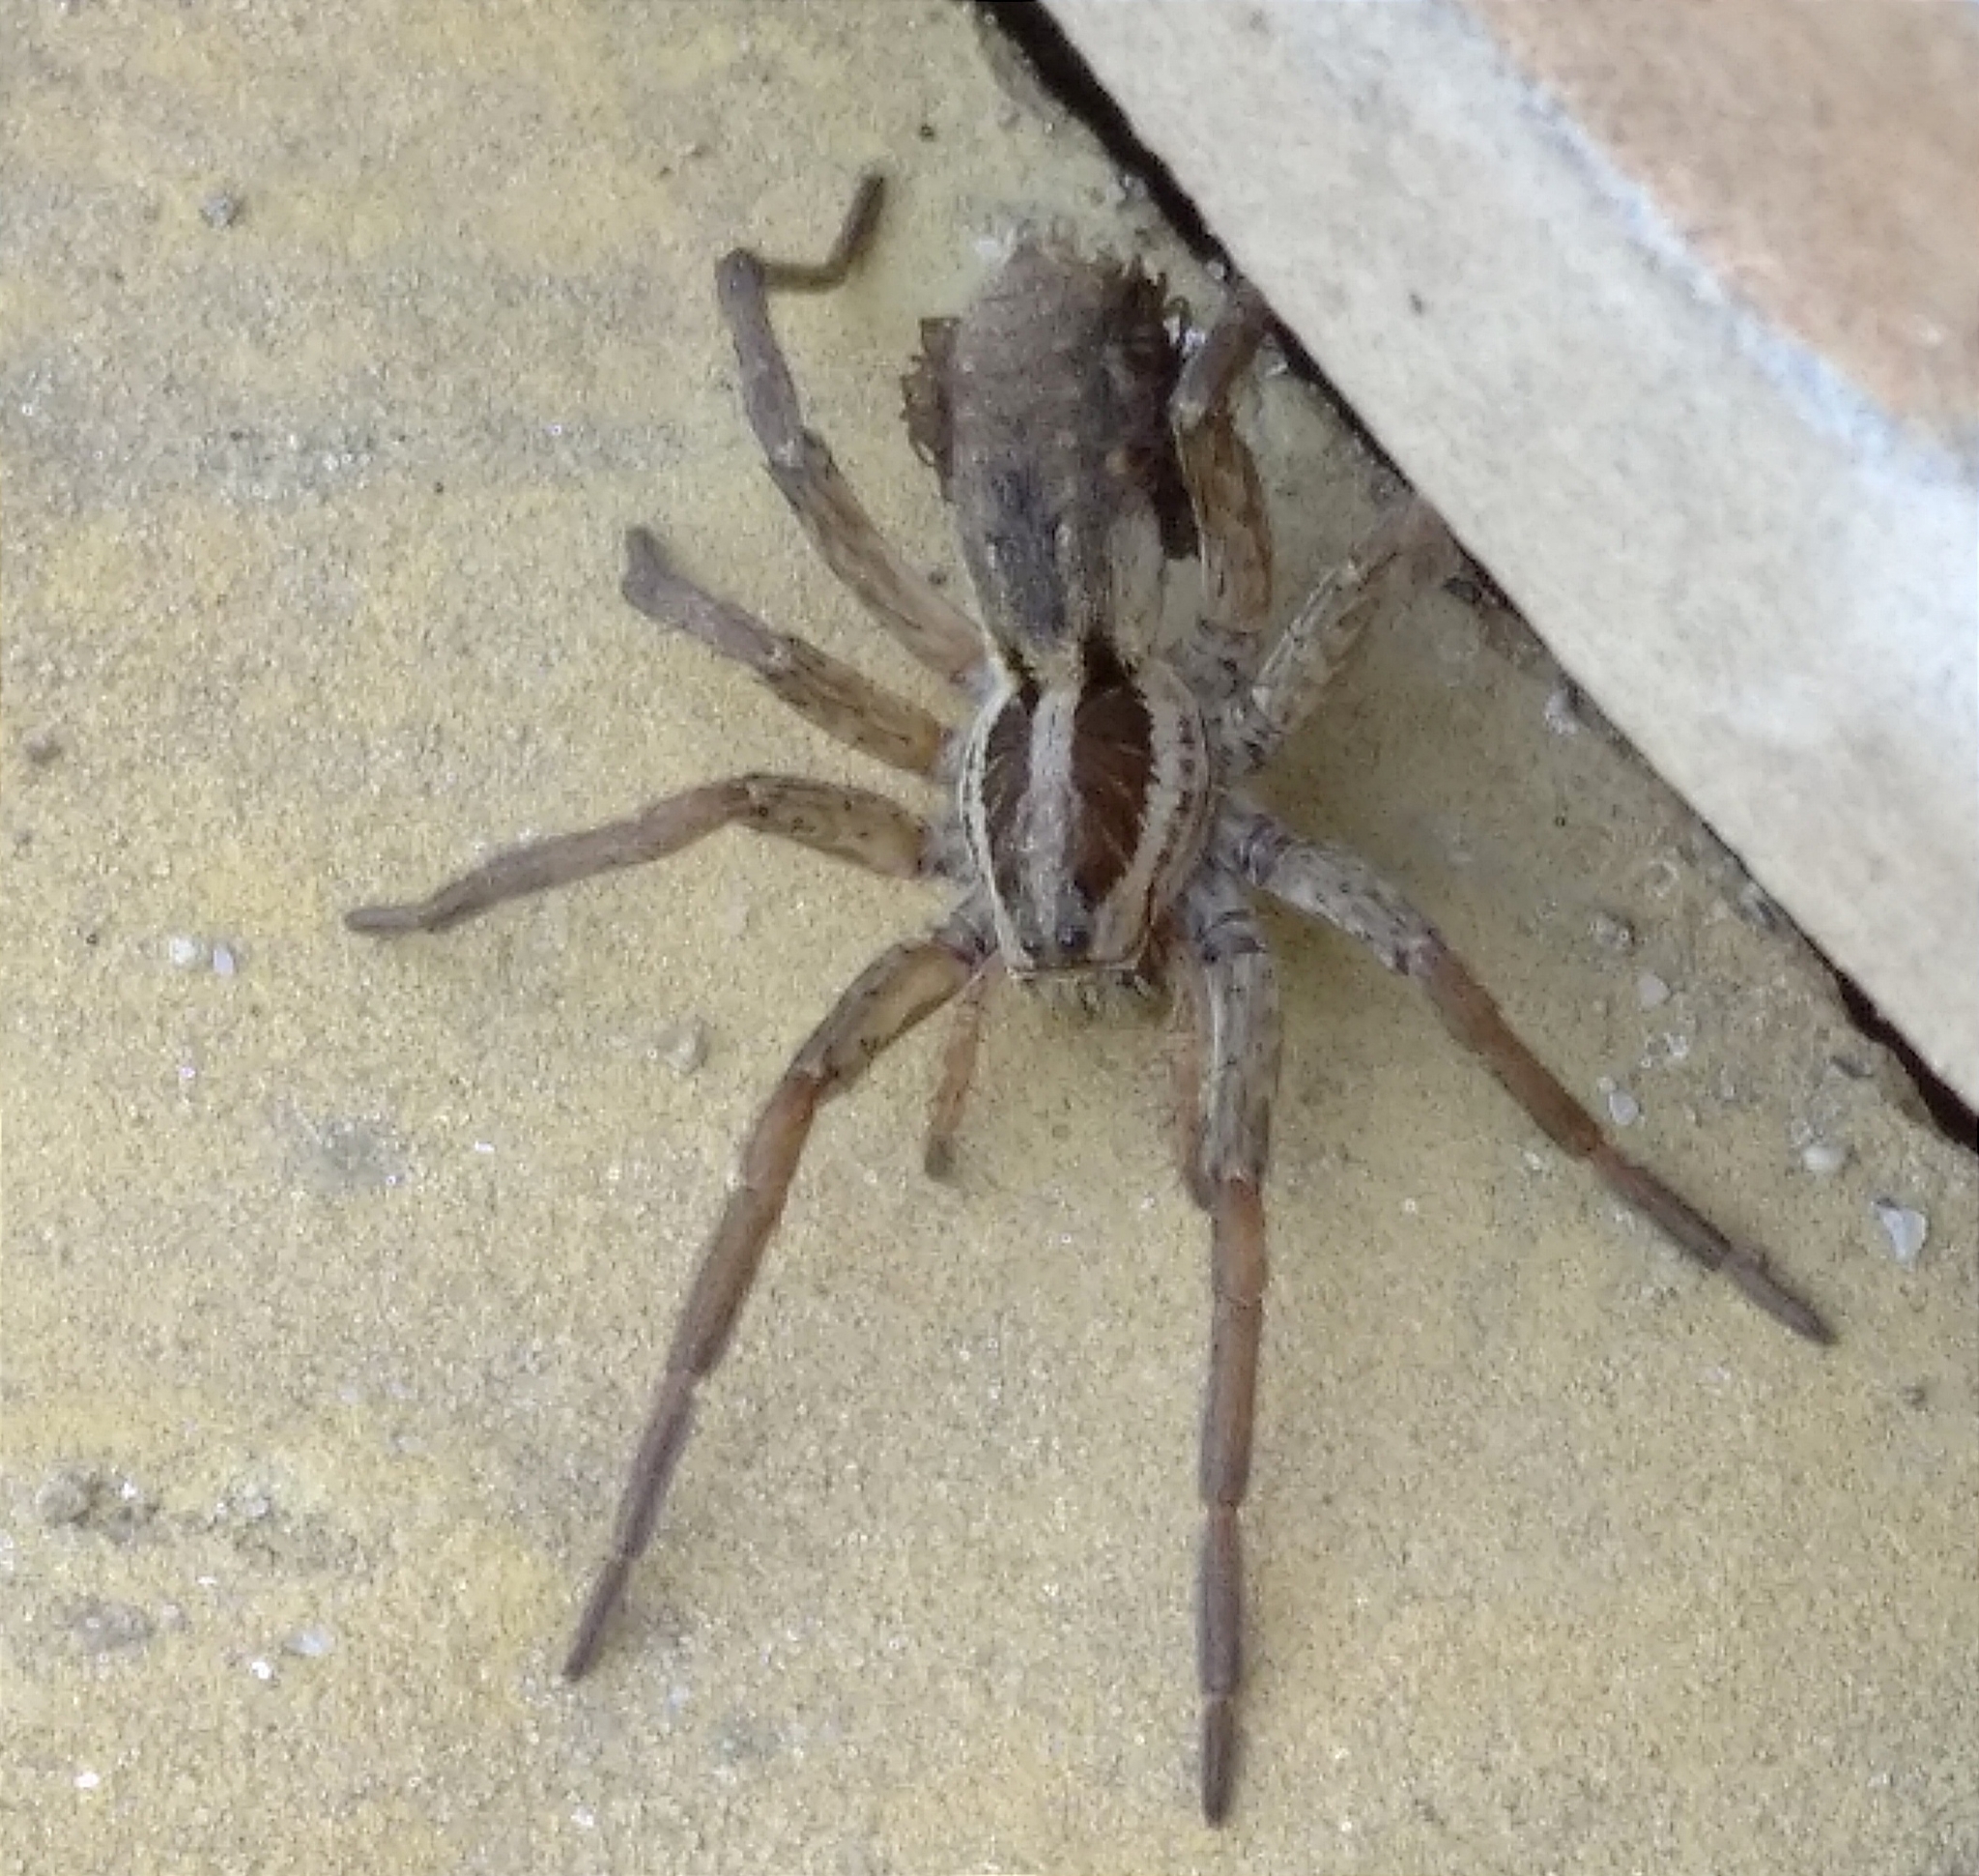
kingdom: Animalia
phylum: Arthropoda
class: Arachnida
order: Araneae
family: Lycosidae
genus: Hogna
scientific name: Hogna radiata
